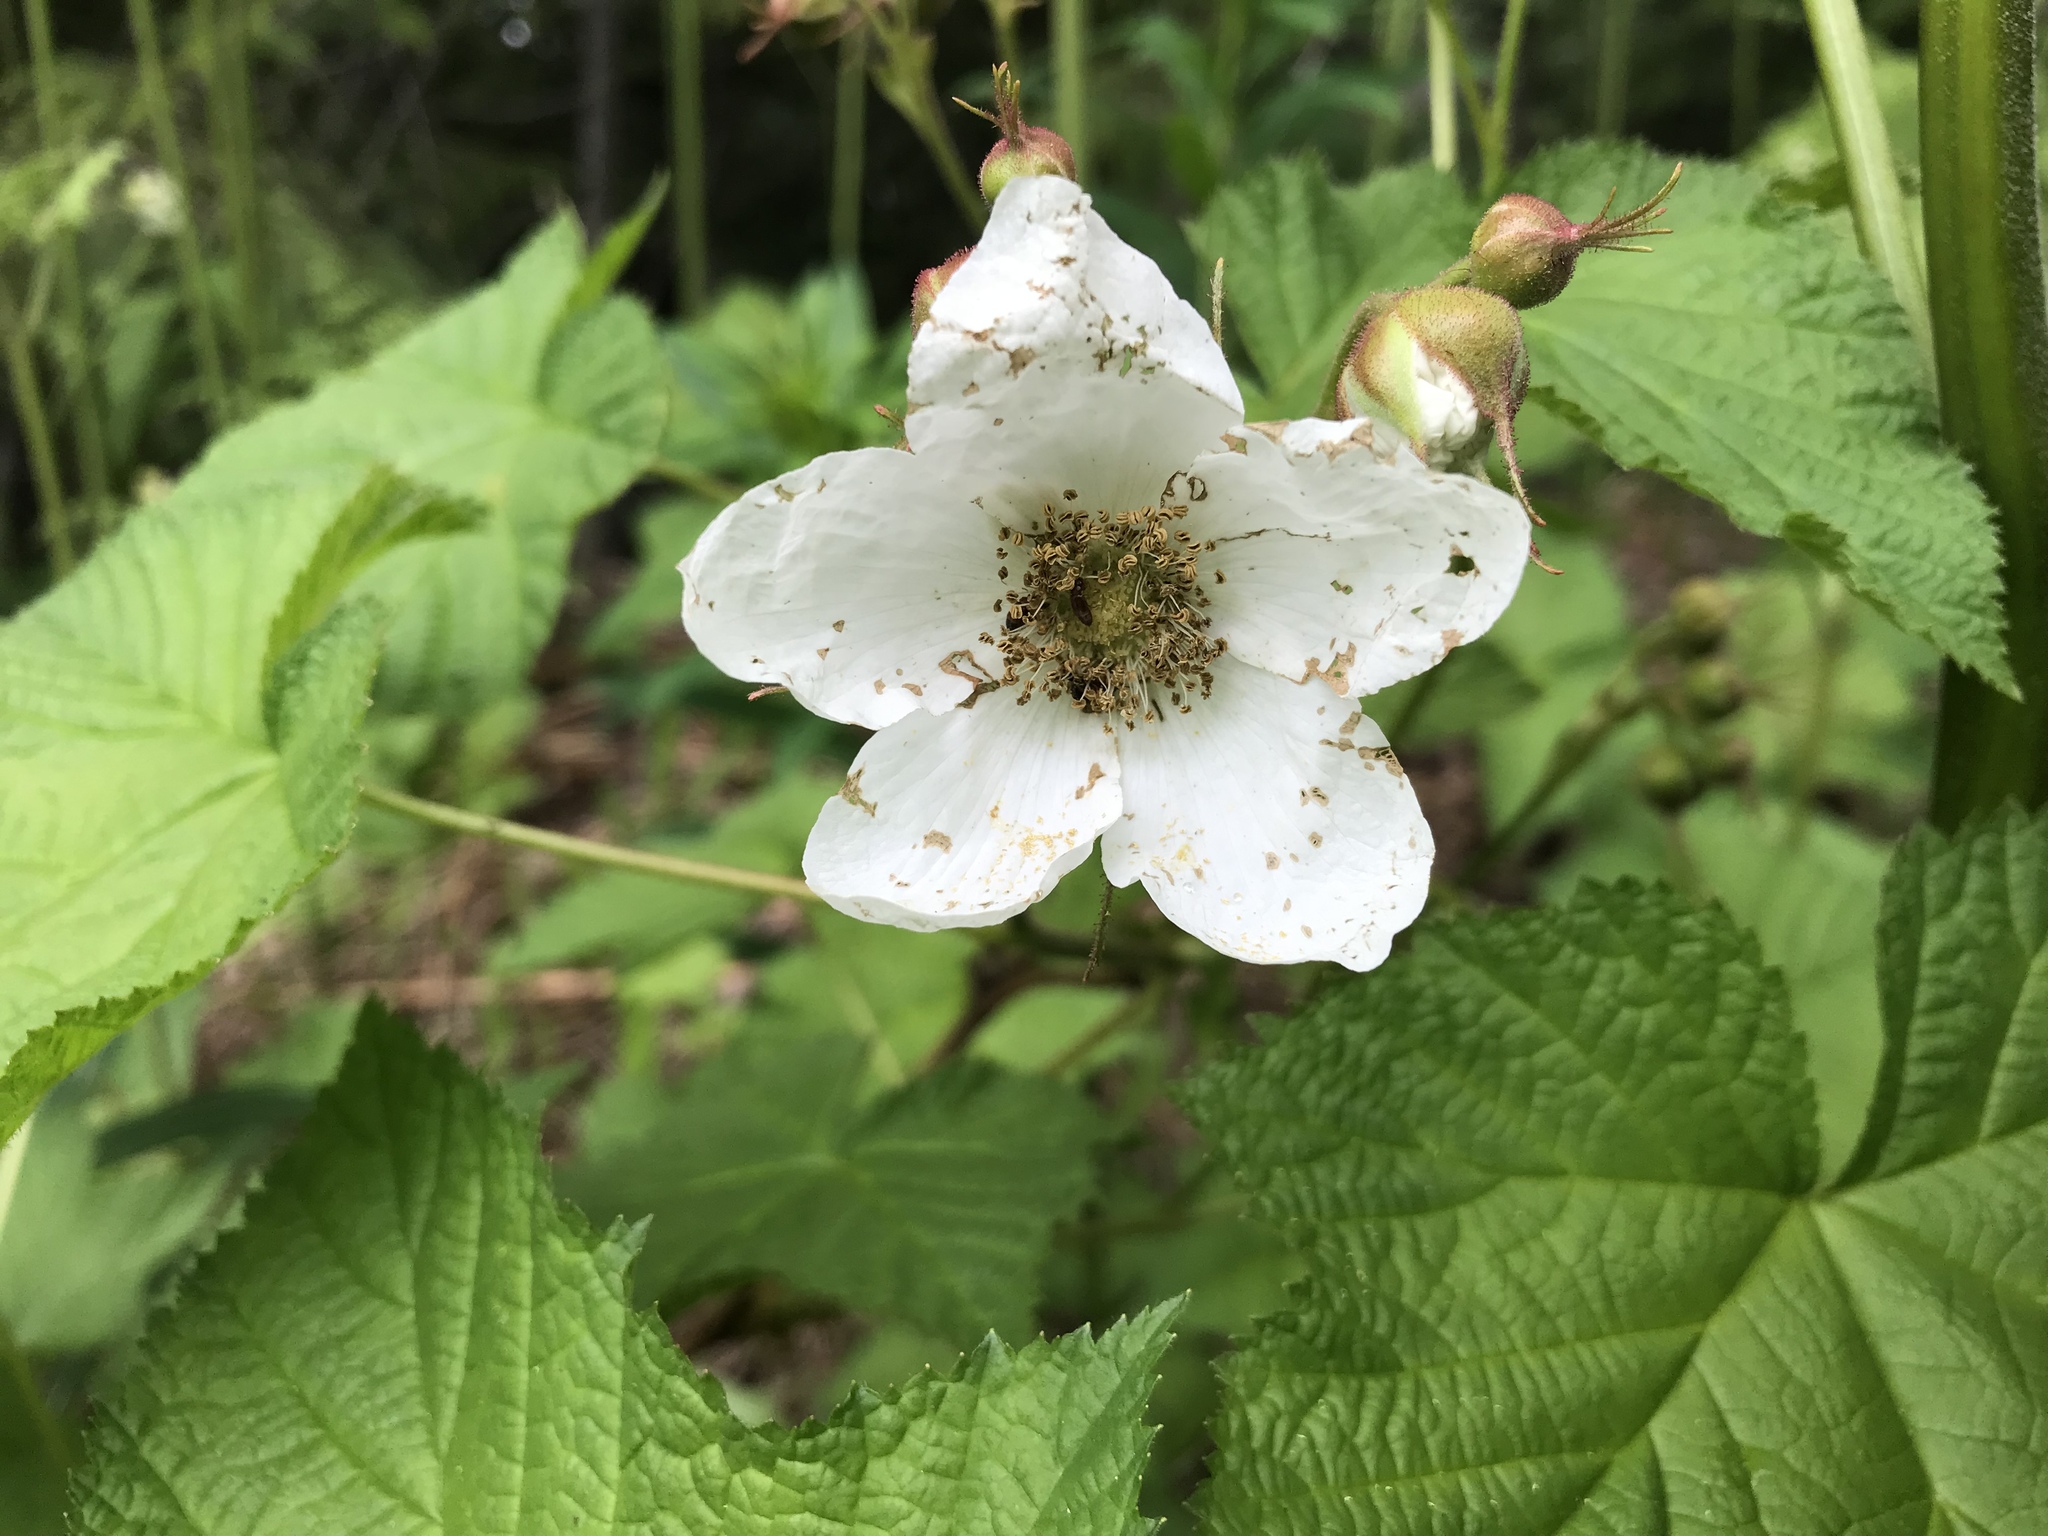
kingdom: Plantae
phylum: Tracheophyta
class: Magnoliopsida
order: Rosales
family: Rosaceae
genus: Rubus
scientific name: Rubus parviflorus
